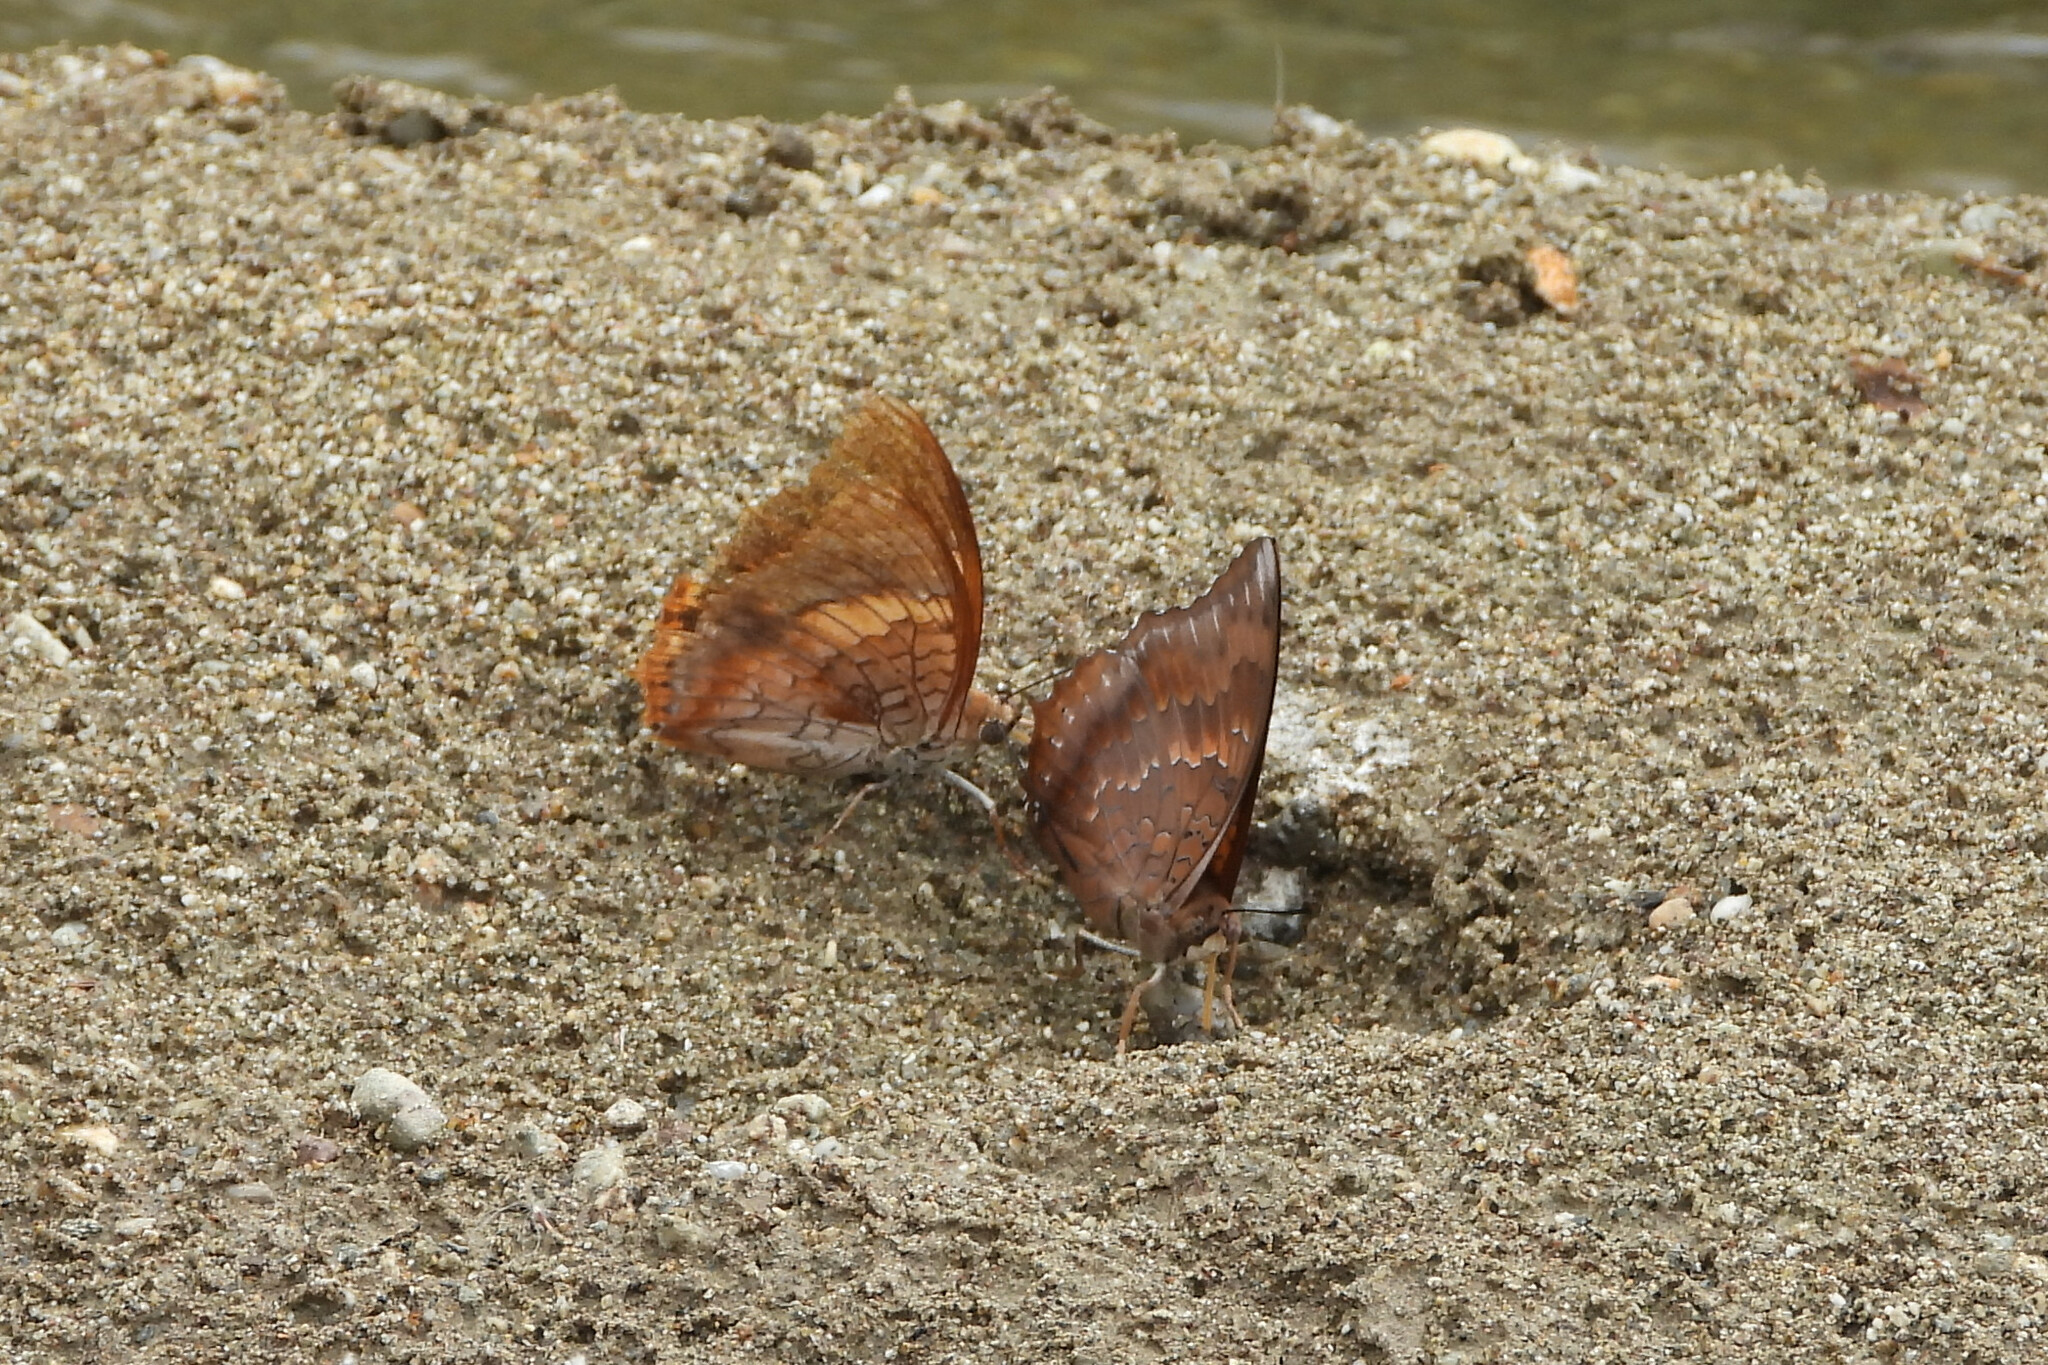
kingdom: Animalia
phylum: Arthropoda
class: Insecta
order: Lepidoptera
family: Nymphalidae
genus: Charaxes
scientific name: Charaxes bernardus
